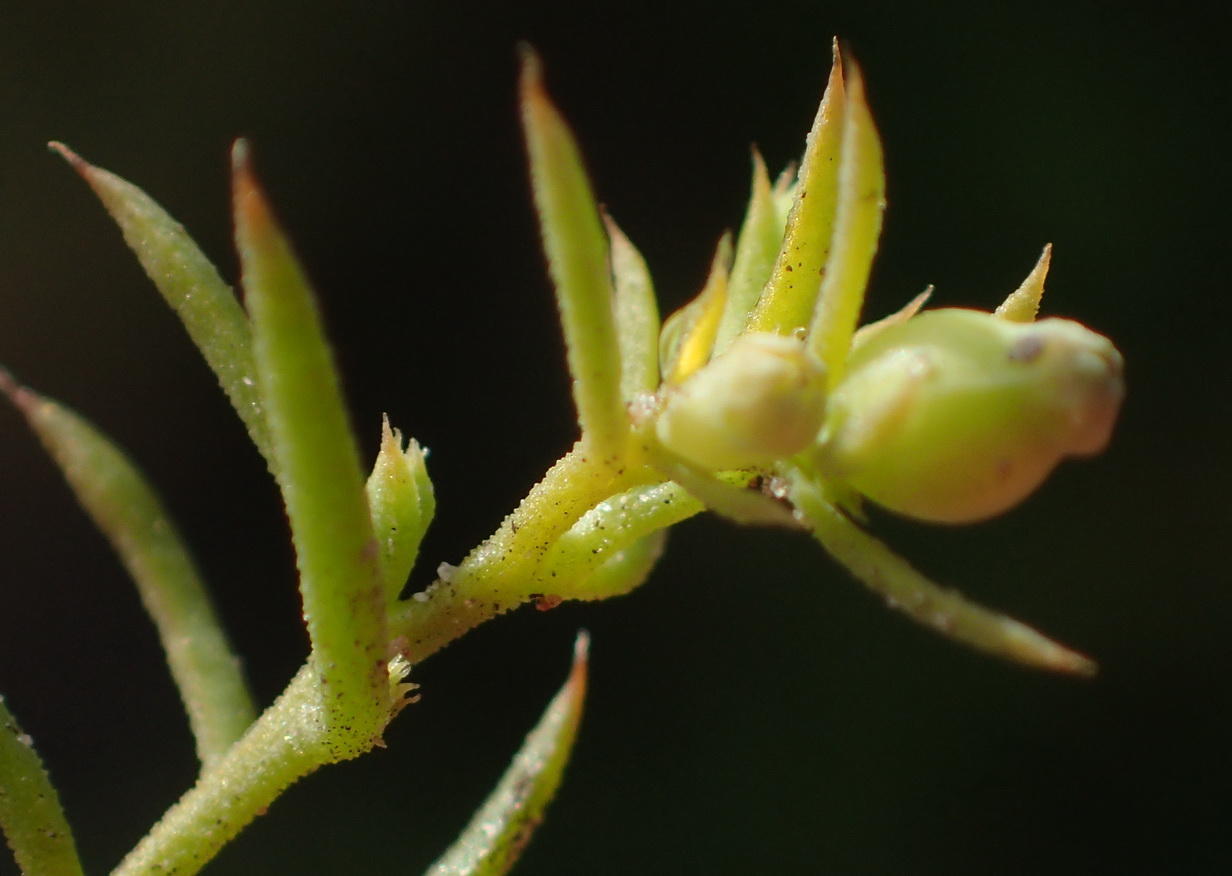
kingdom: Plantae
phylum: Tracheophyta
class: Magnoliopsida
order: Santalales
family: Thesiaceae
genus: Thesium
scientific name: Thesium squarrosum
